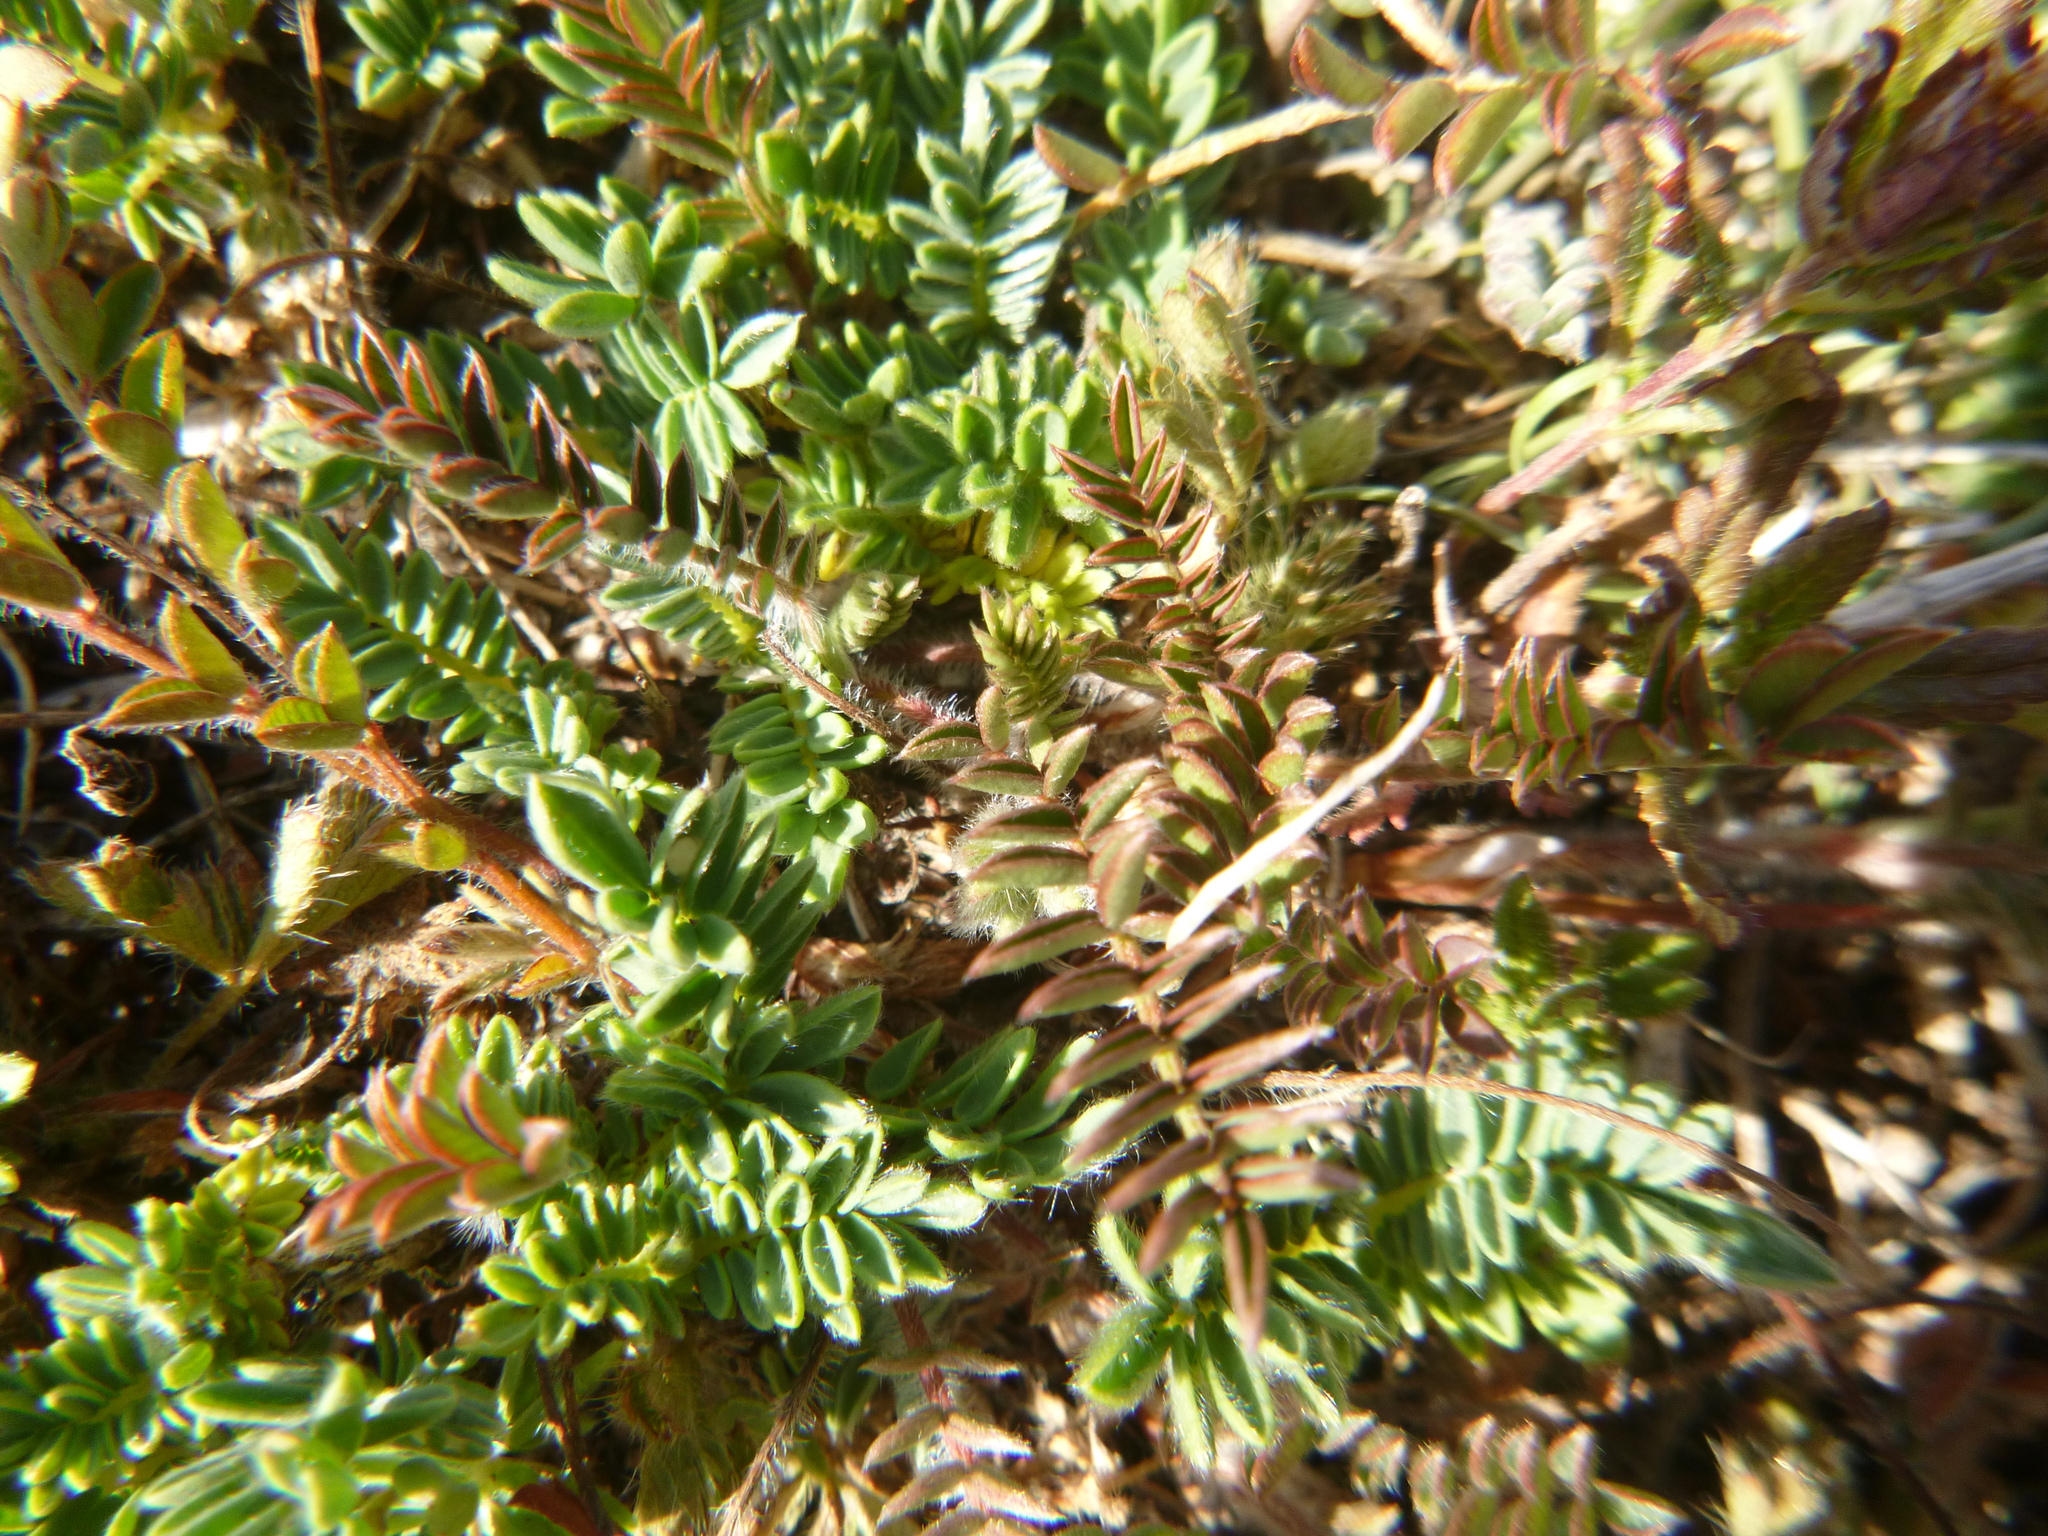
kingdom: Plantae
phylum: Tracheophyta
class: Magnoliopsida
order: Fabales
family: Fabaceae
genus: Anthyllis
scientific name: Anthyllis montana
